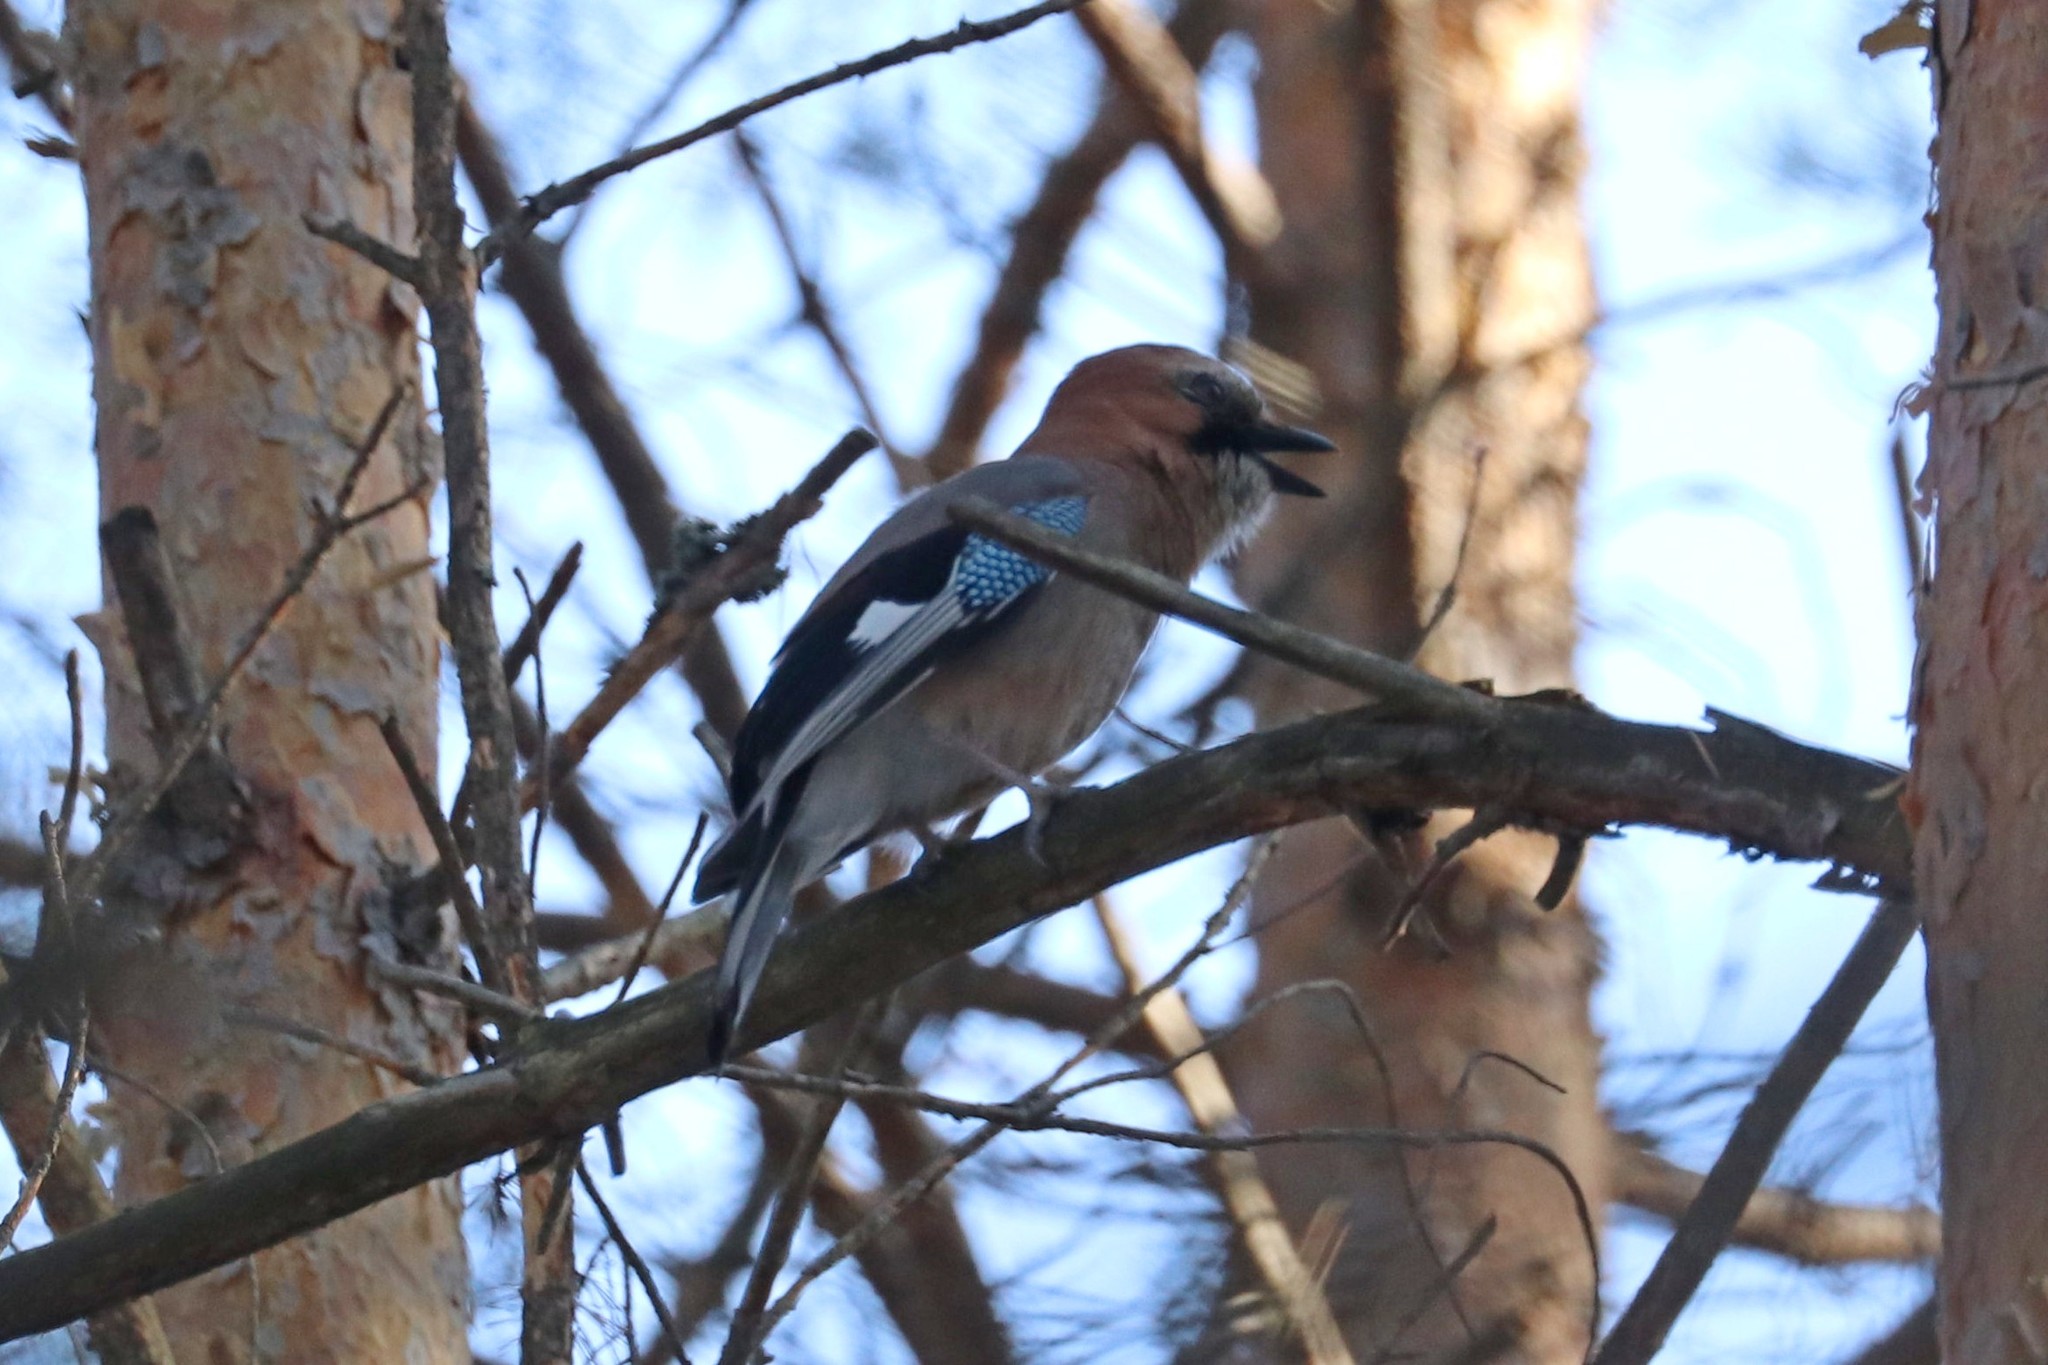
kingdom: Animalia
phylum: Chordata
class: Aves
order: Passeriformes
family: Corvidae
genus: Garrulus
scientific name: Garrulus glandarius
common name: Eurasian jay
